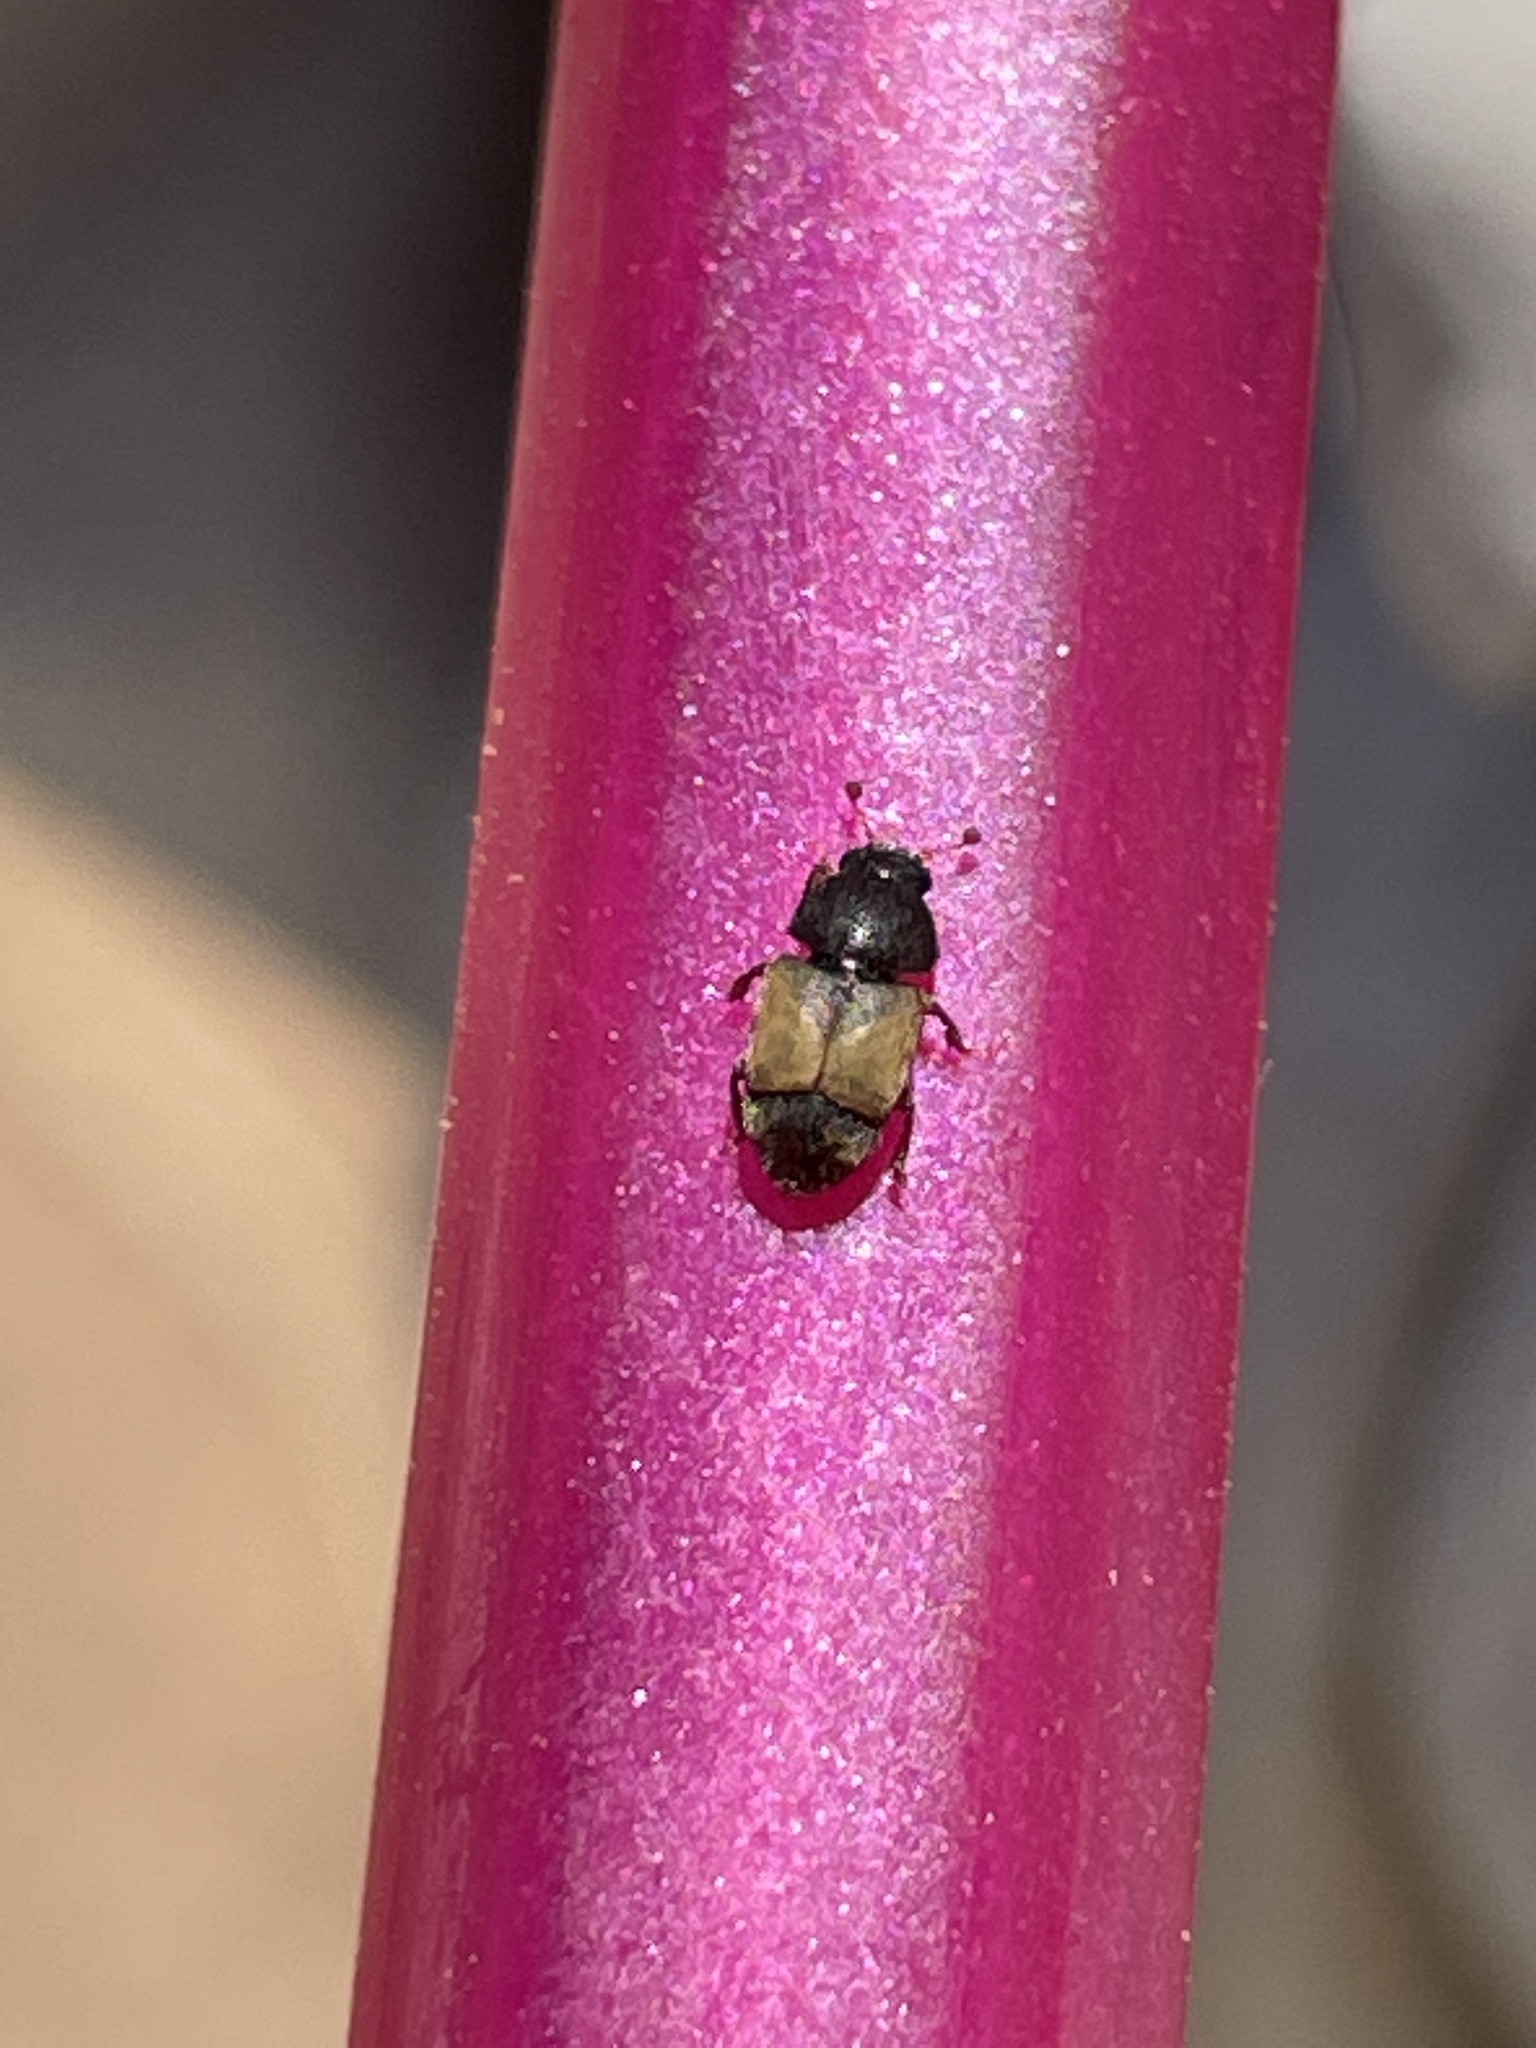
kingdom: Animalia
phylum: Arthropoda
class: Insecta
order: Coleoptera
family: Nitidulidae
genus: Nitops
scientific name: Nitops pallipennis
